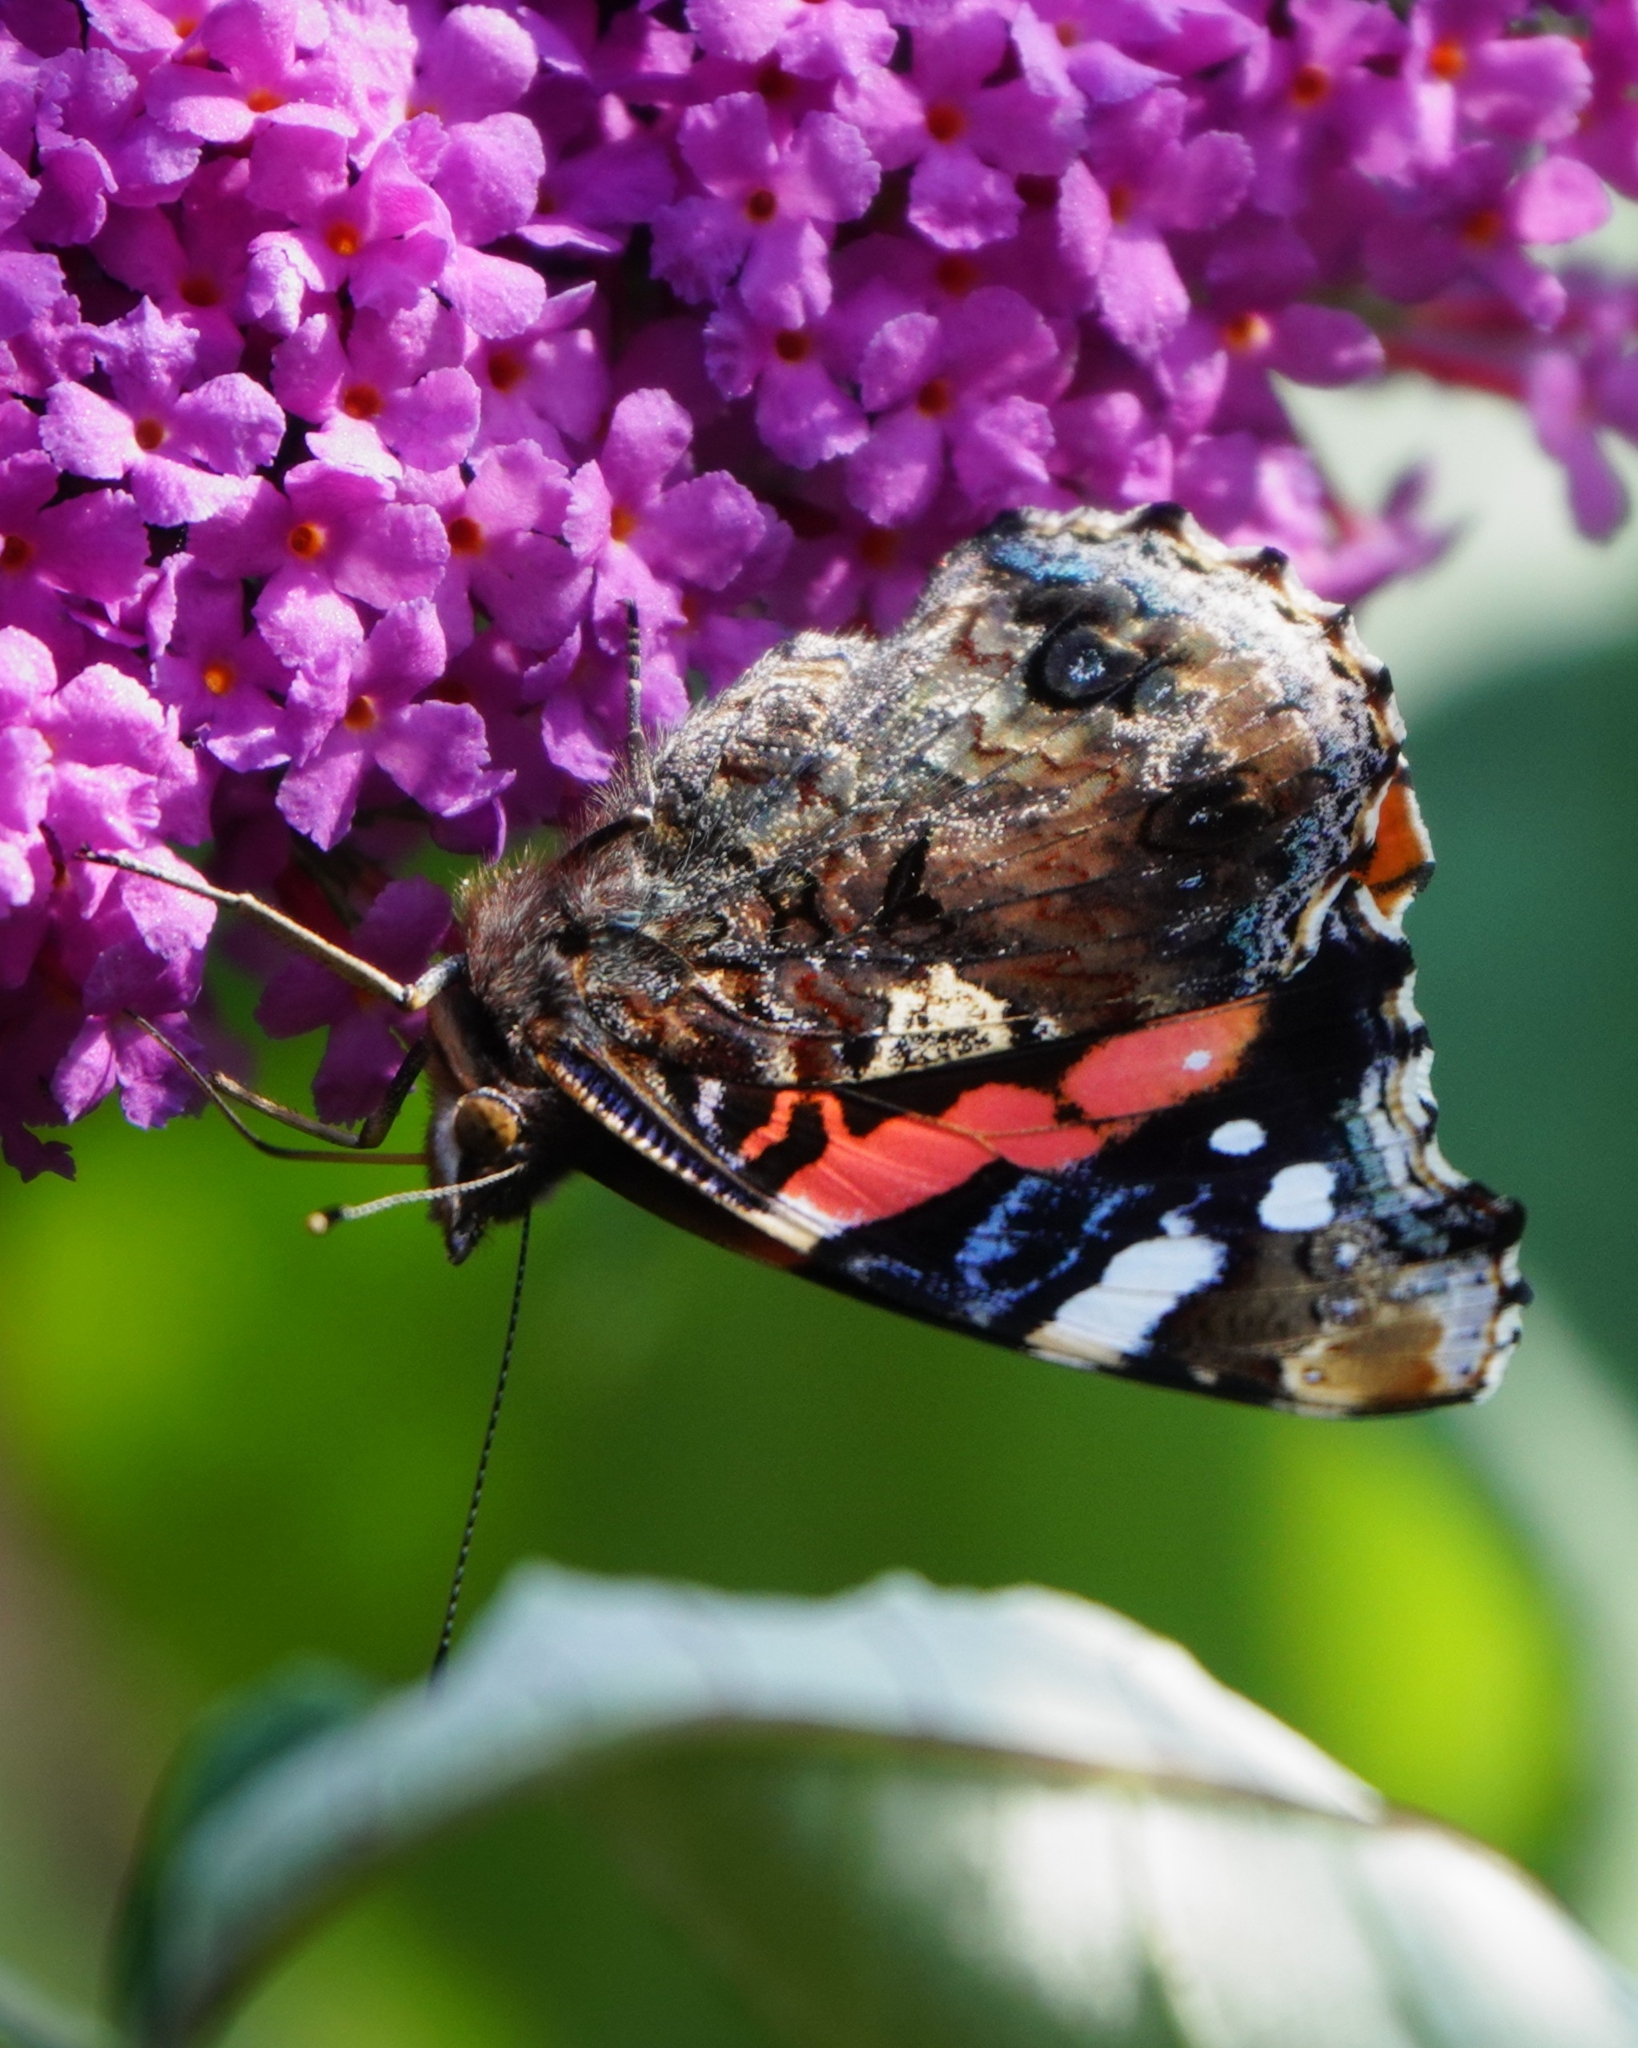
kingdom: Animalia
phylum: Arthropoda
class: Insecta
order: Lepidoptera
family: Nymphalidae
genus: Vanessa
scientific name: Vanessa atalanta
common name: Red admiral
